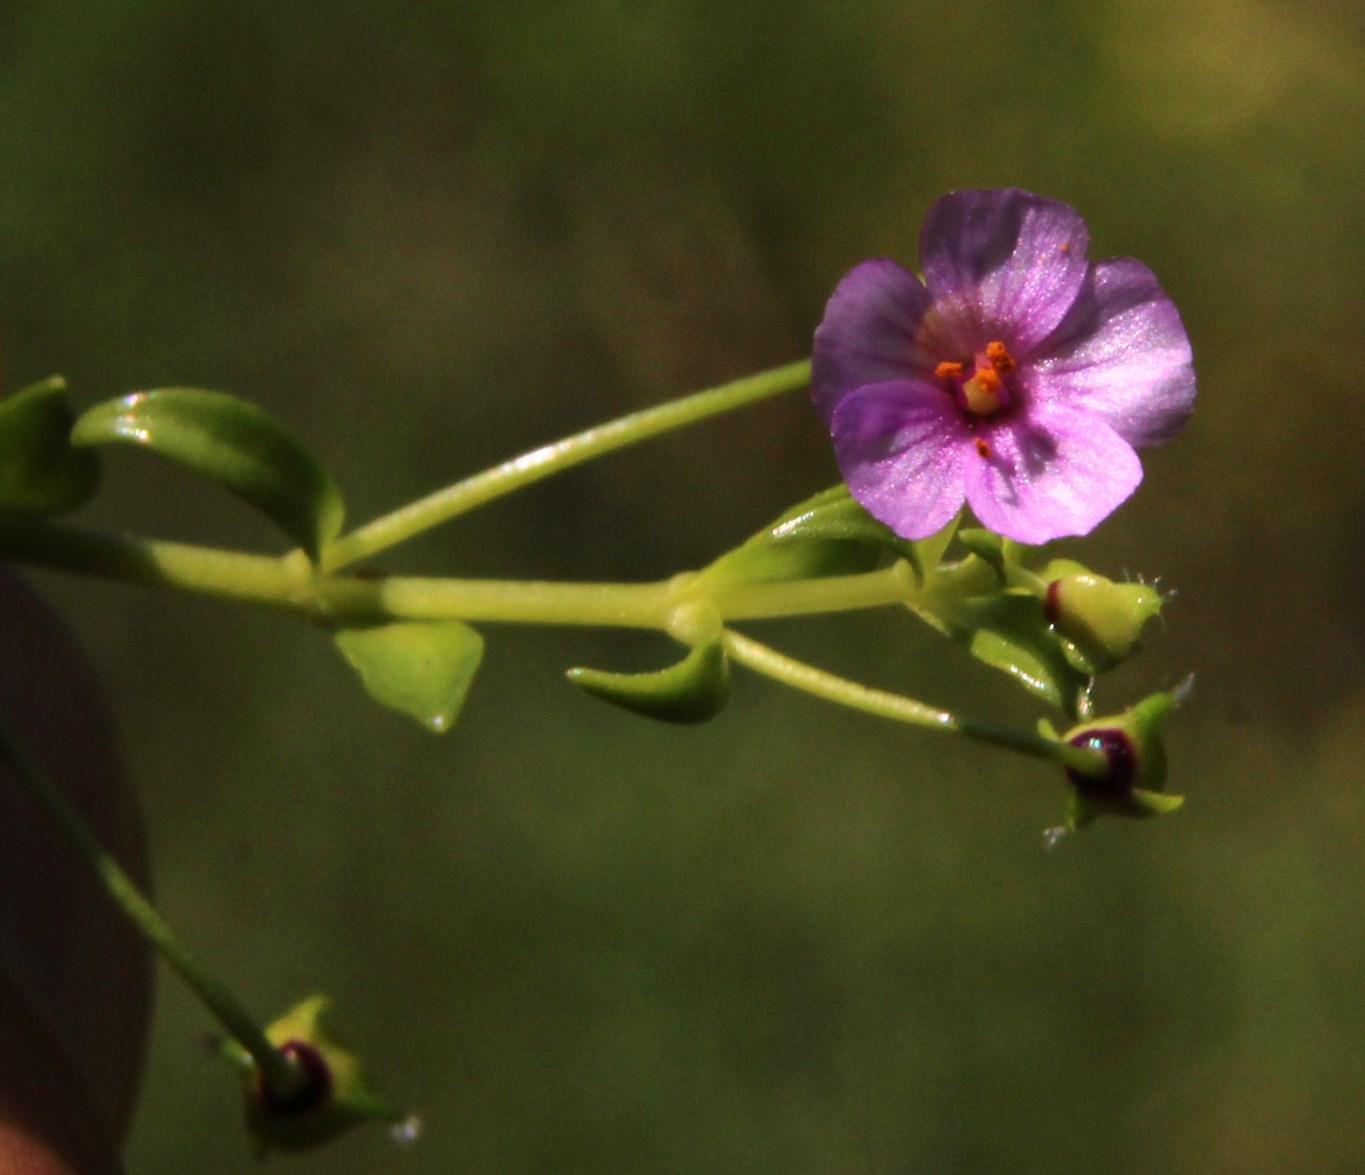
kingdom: Plantae
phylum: Tracheophyta
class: Magnoliopsida
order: Caryophyllales
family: Montiaceae
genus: Calandrinia
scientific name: Calandrinia pilosiuscula
